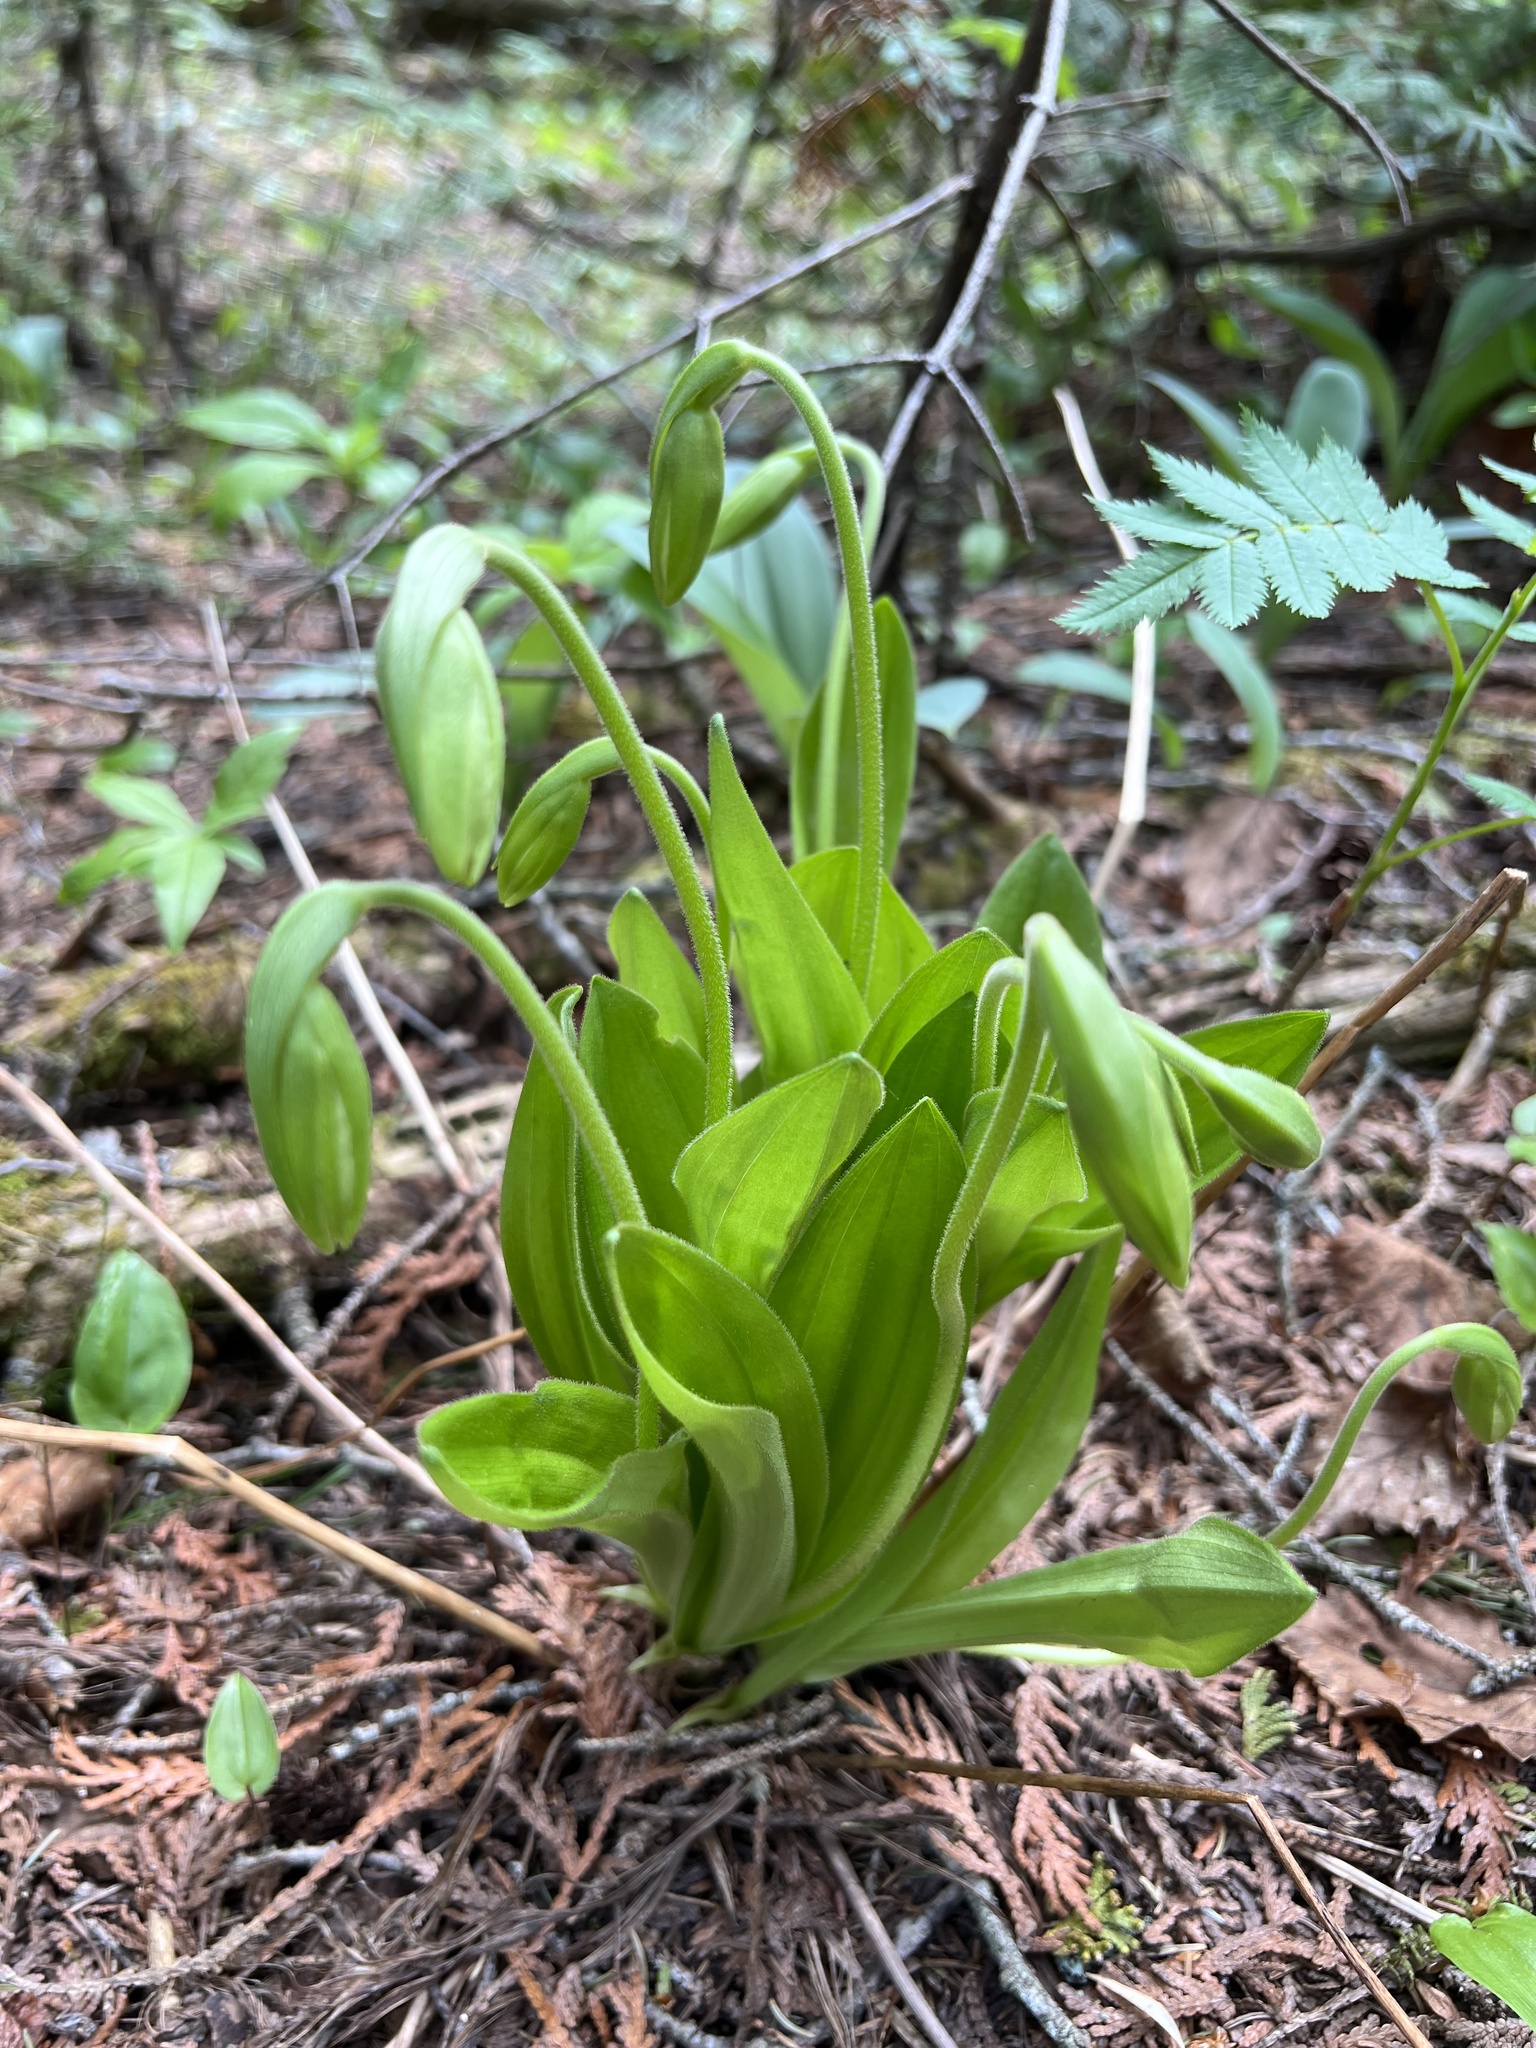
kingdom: Plantae
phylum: Tracheophyta
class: Liliopsida
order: Asparagales
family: Orchidaceae
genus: Cypripedium
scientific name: Cypripedium acaule
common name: Pink lady's-slipper
